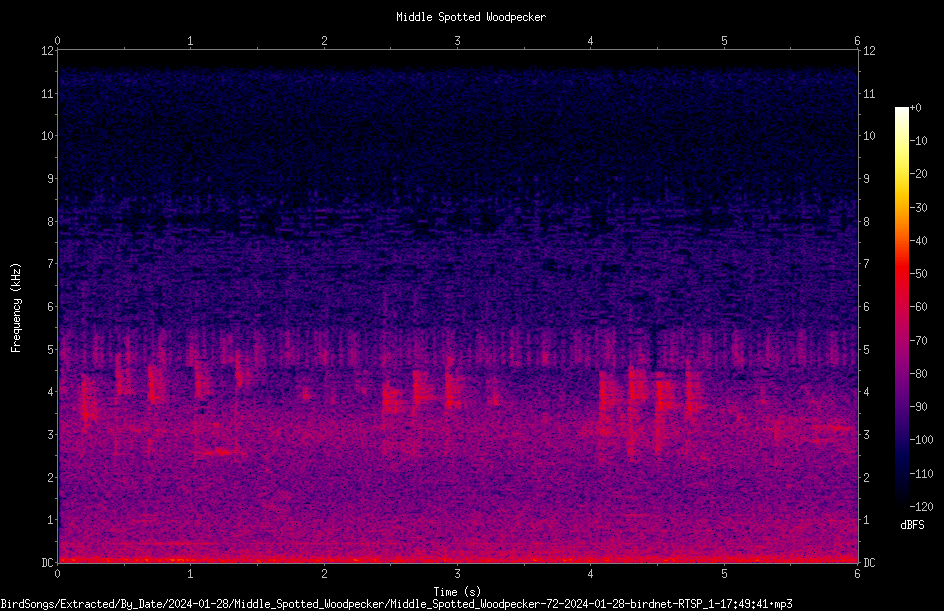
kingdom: Animalia
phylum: Chordata
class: Aves
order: Piciformes
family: Picidae
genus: Dendrocoptes
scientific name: Dendrocoptes medius
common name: Middle spotted woodpecker
